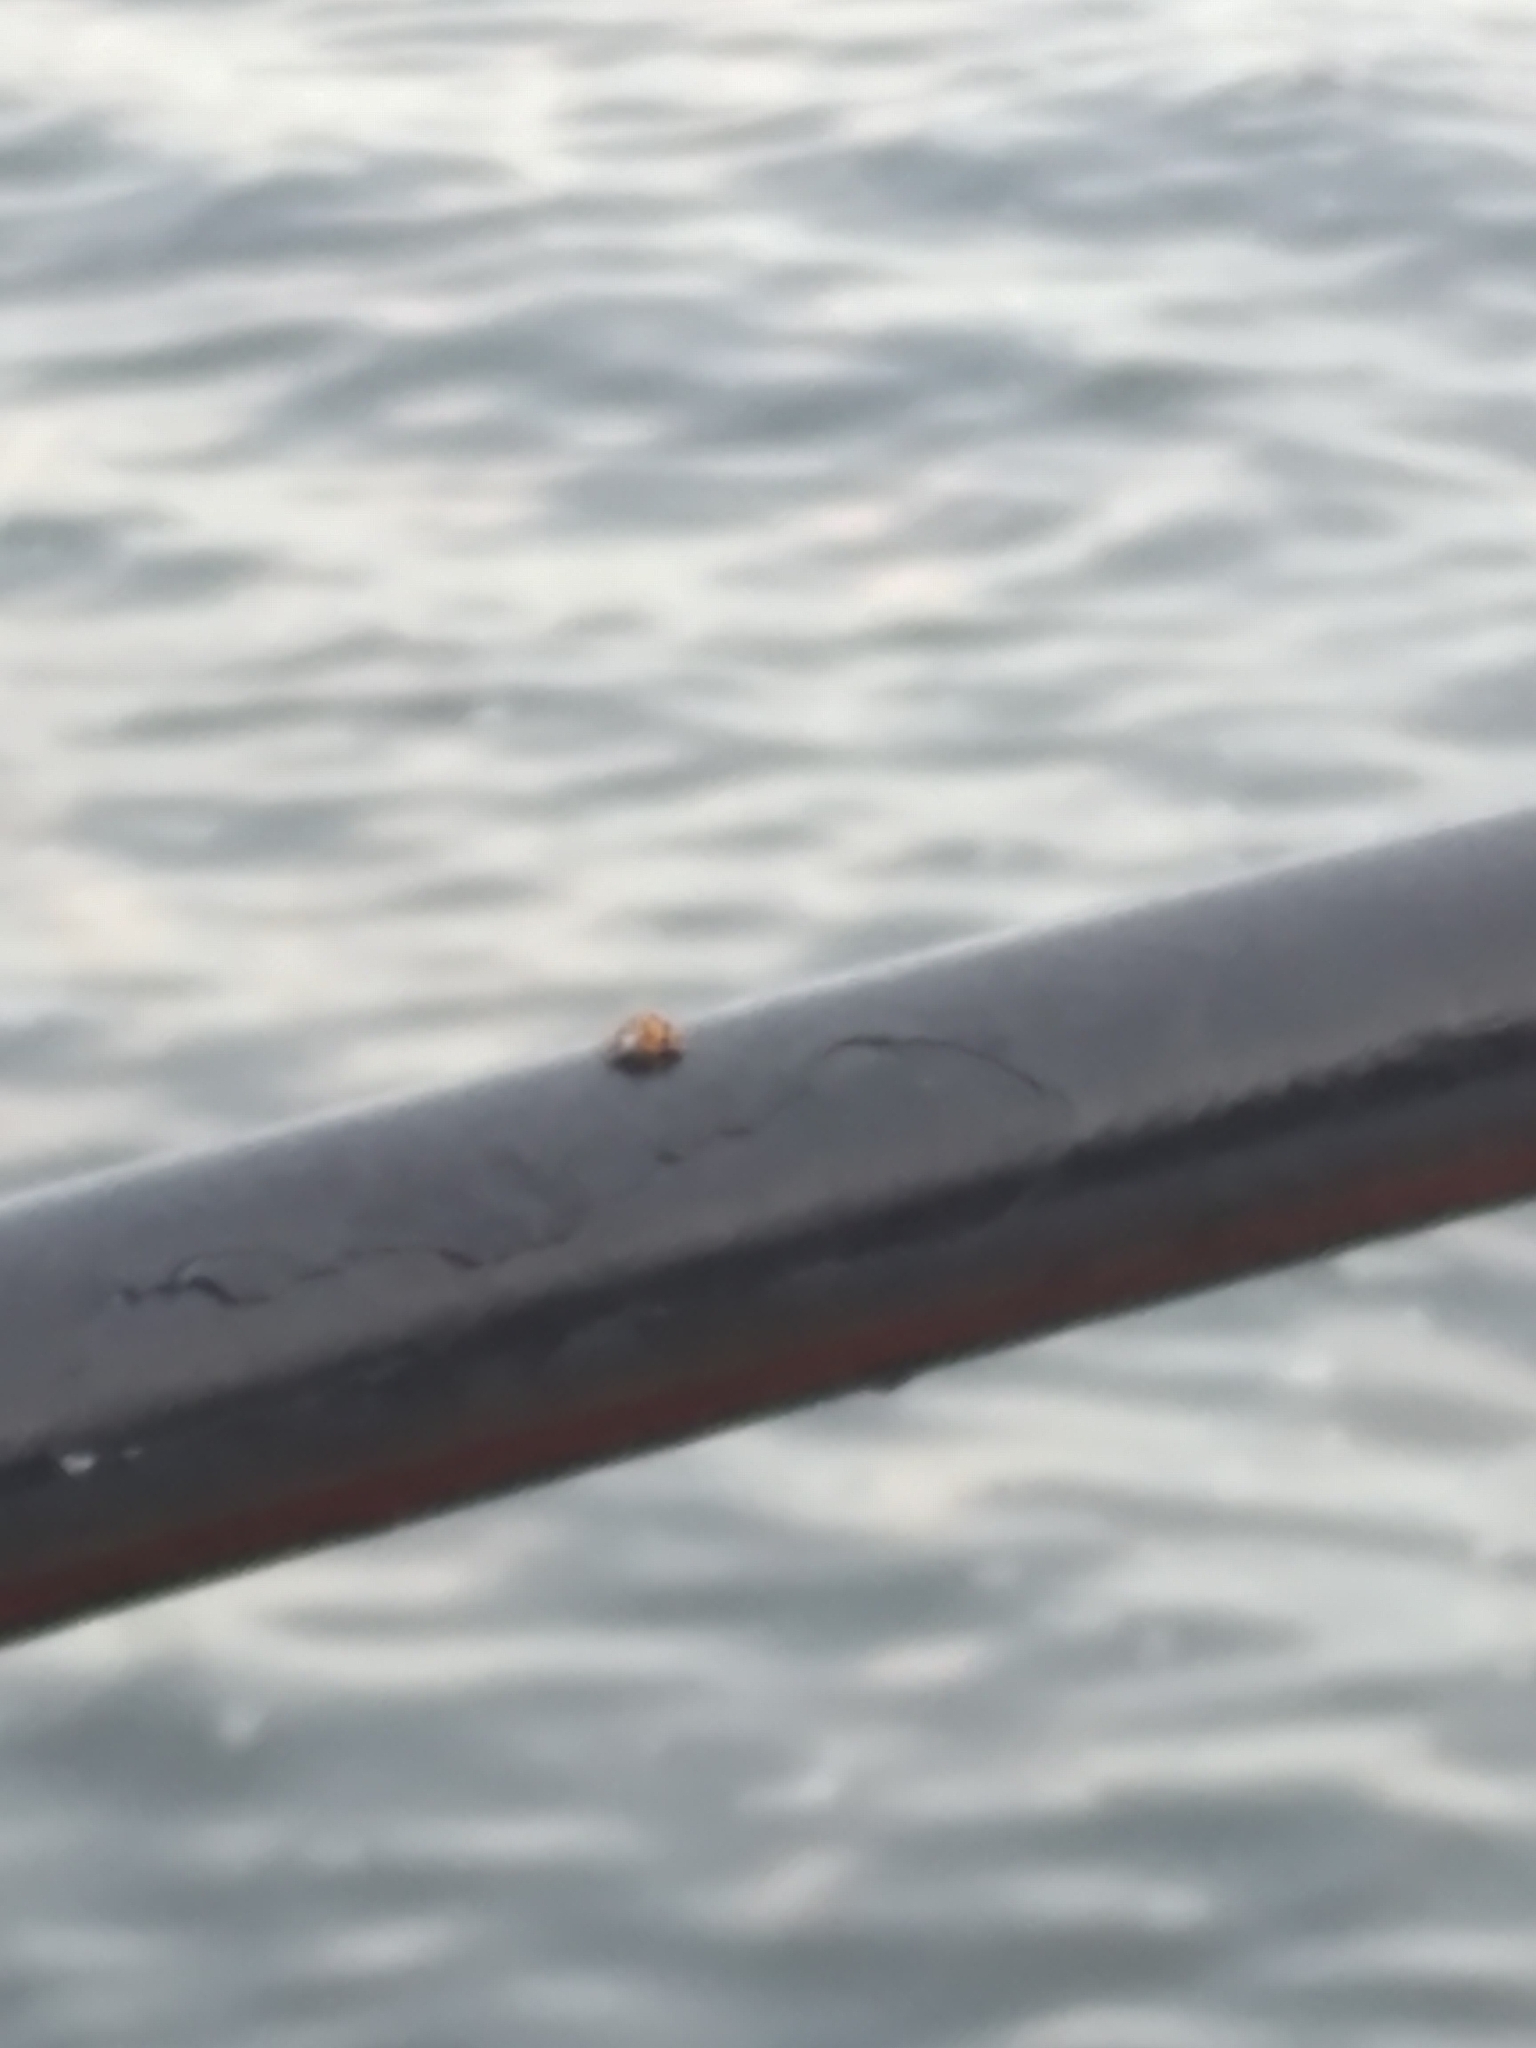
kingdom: Animalia
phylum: Arthropoda
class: Insecta
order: Coleoptera
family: Coccinellidae
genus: Harmonia
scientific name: Harmonia axyridis
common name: Harlequin ladybird
